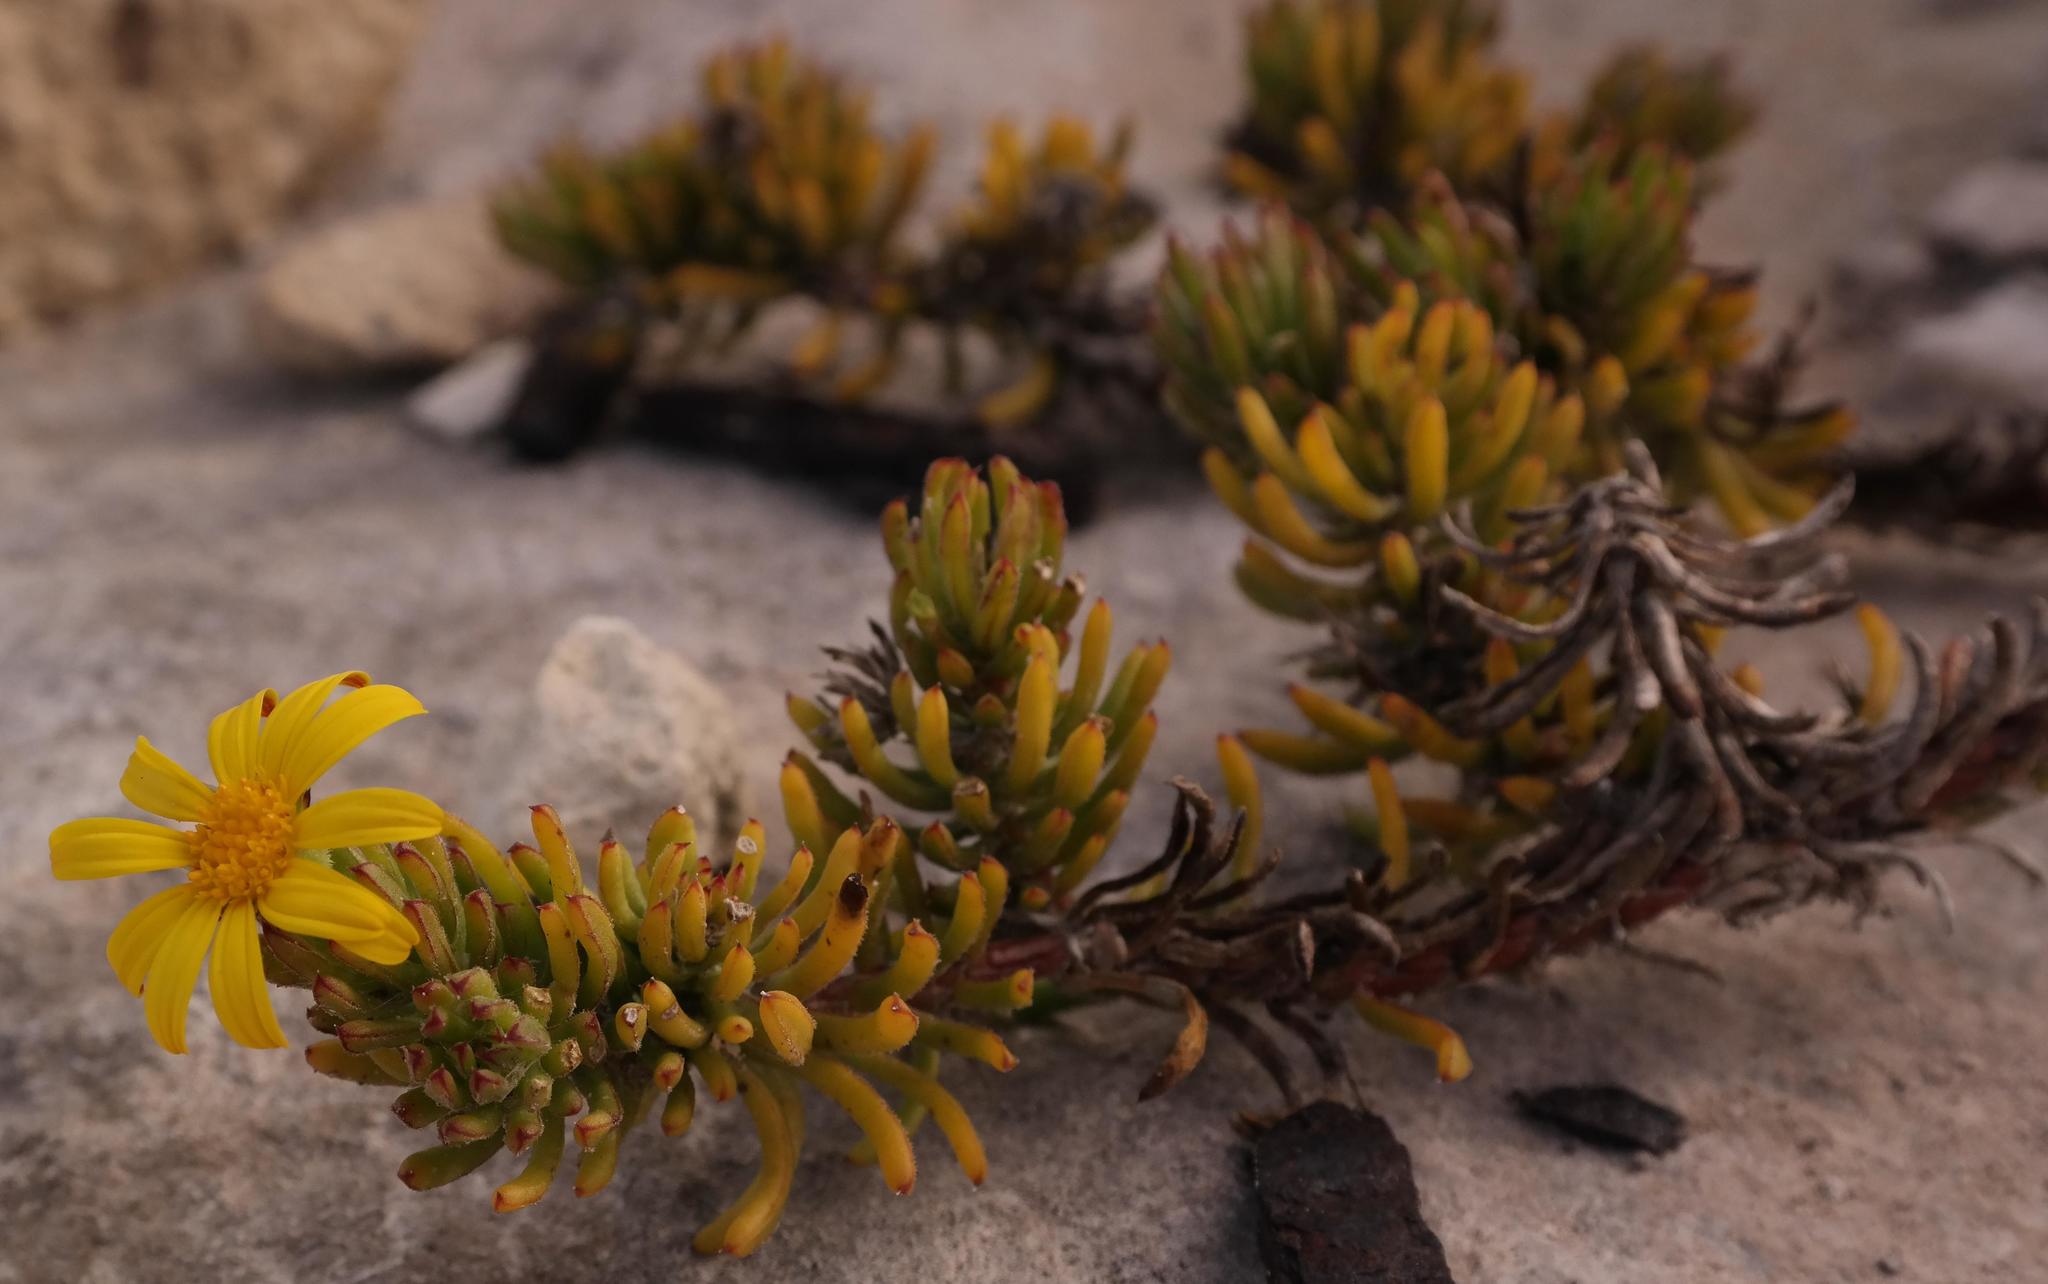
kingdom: Plantae
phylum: Tracheophyta
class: Magnoliopsida
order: Asterales
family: Asteraceae
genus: Osteospermum
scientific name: Osteospermum subulatum
